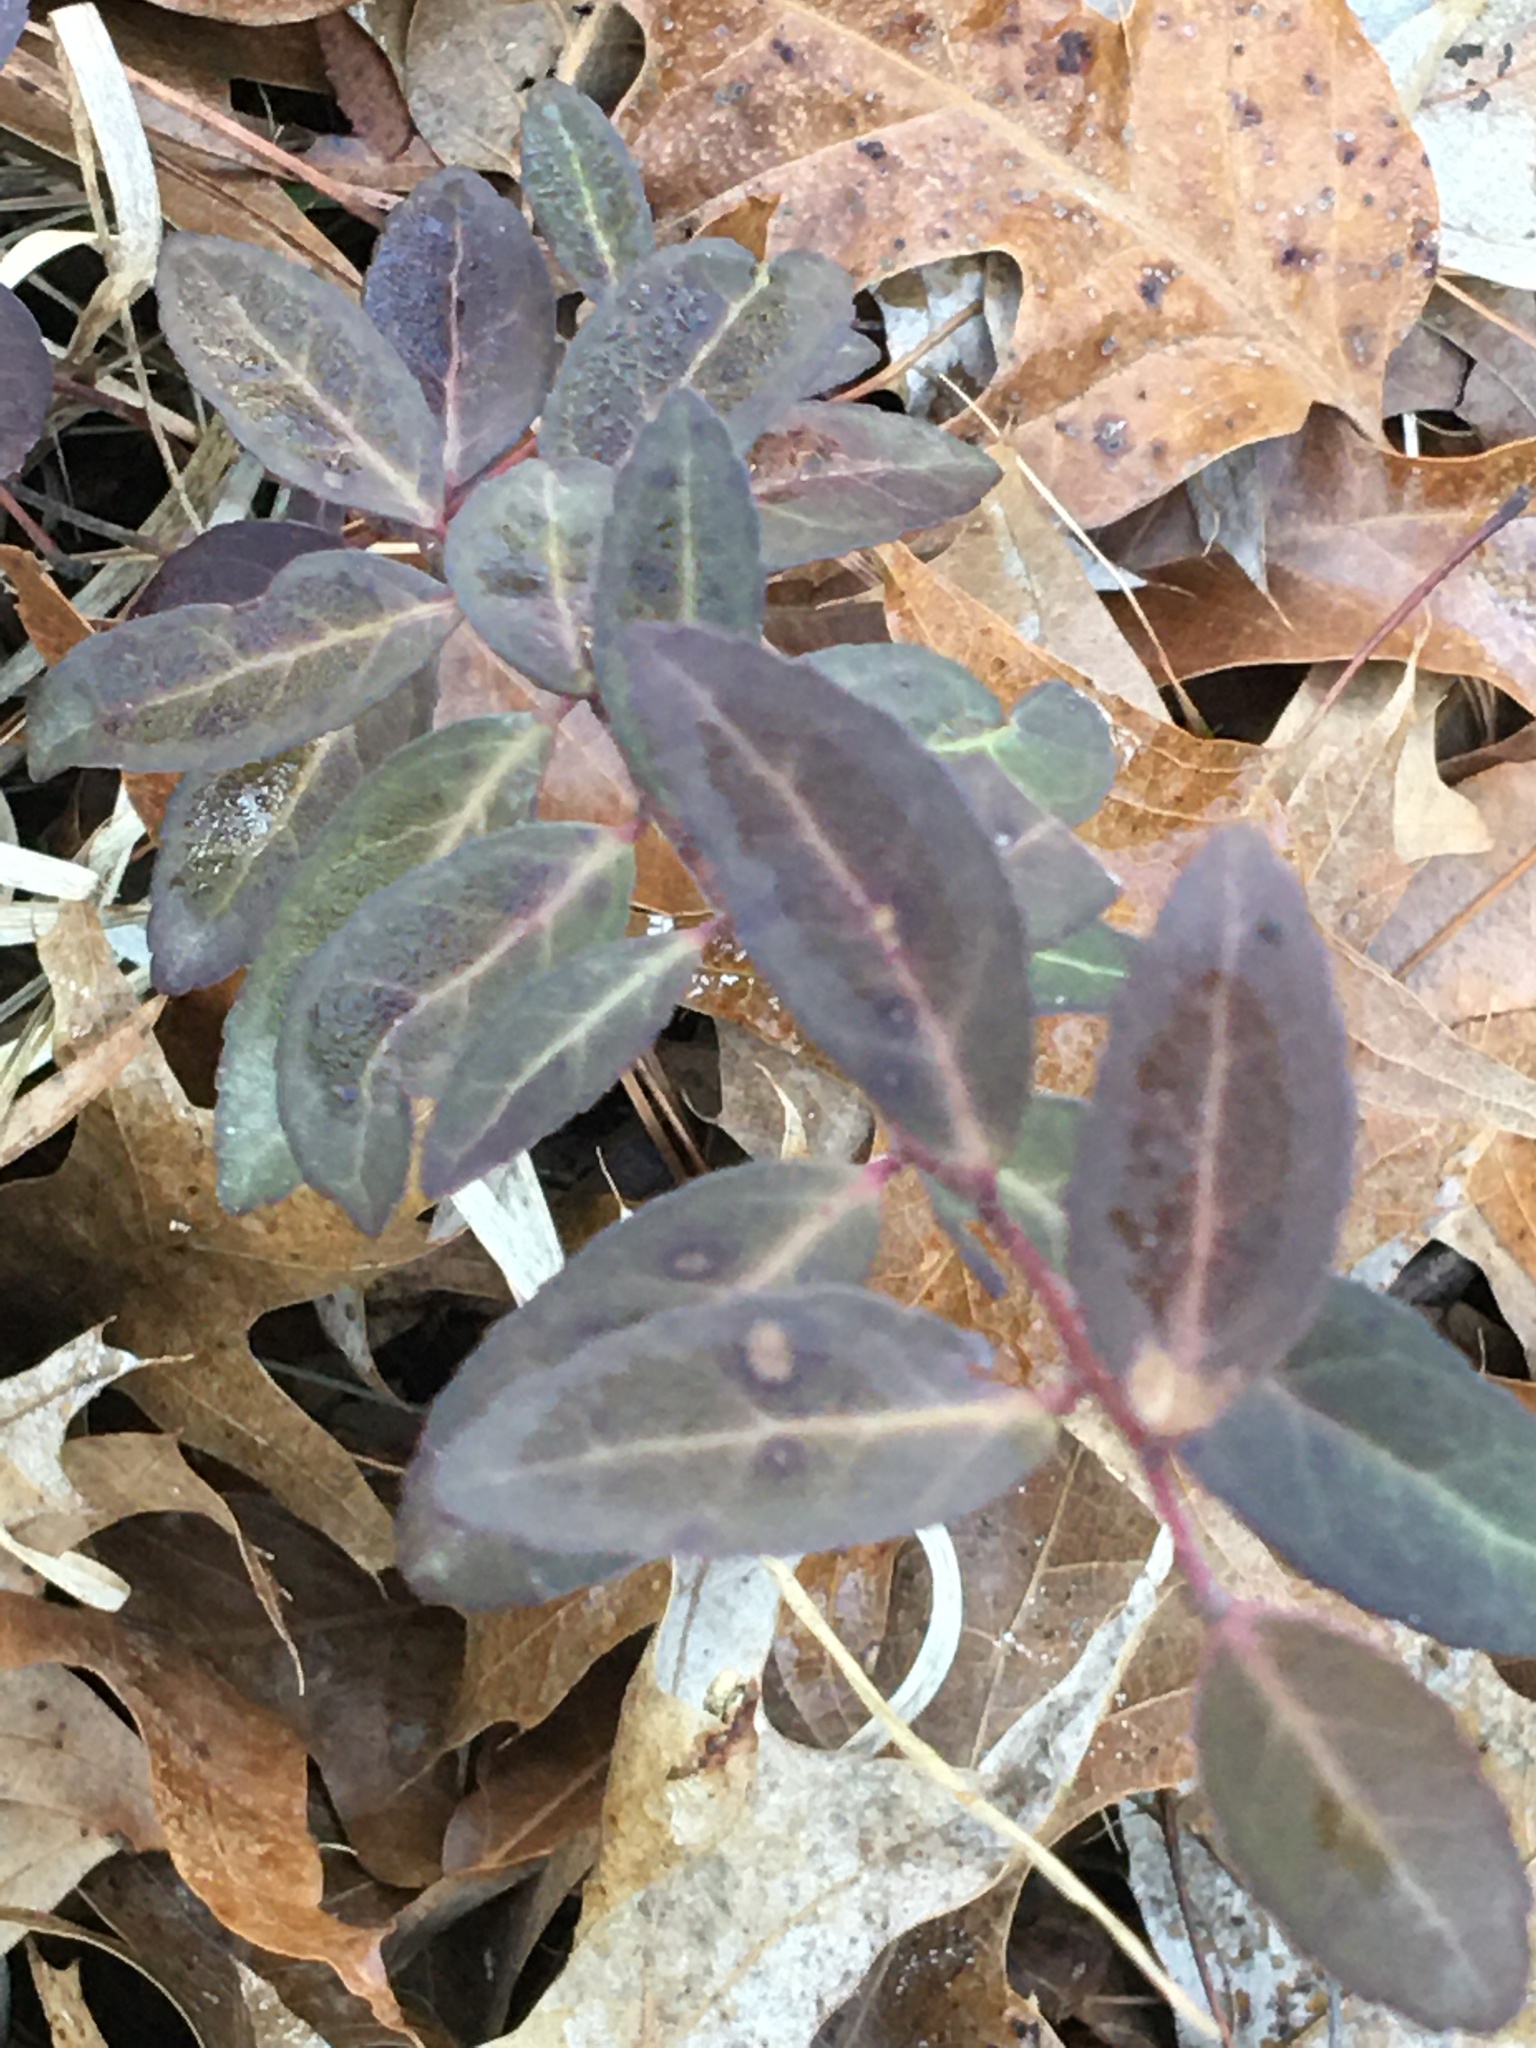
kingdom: Plantae
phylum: Tracheophyta
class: Magnoliopsida
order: Celastrales
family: Celastraceae
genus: Euonymus
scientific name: Euonymus fortunei
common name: Climbing euonymus
